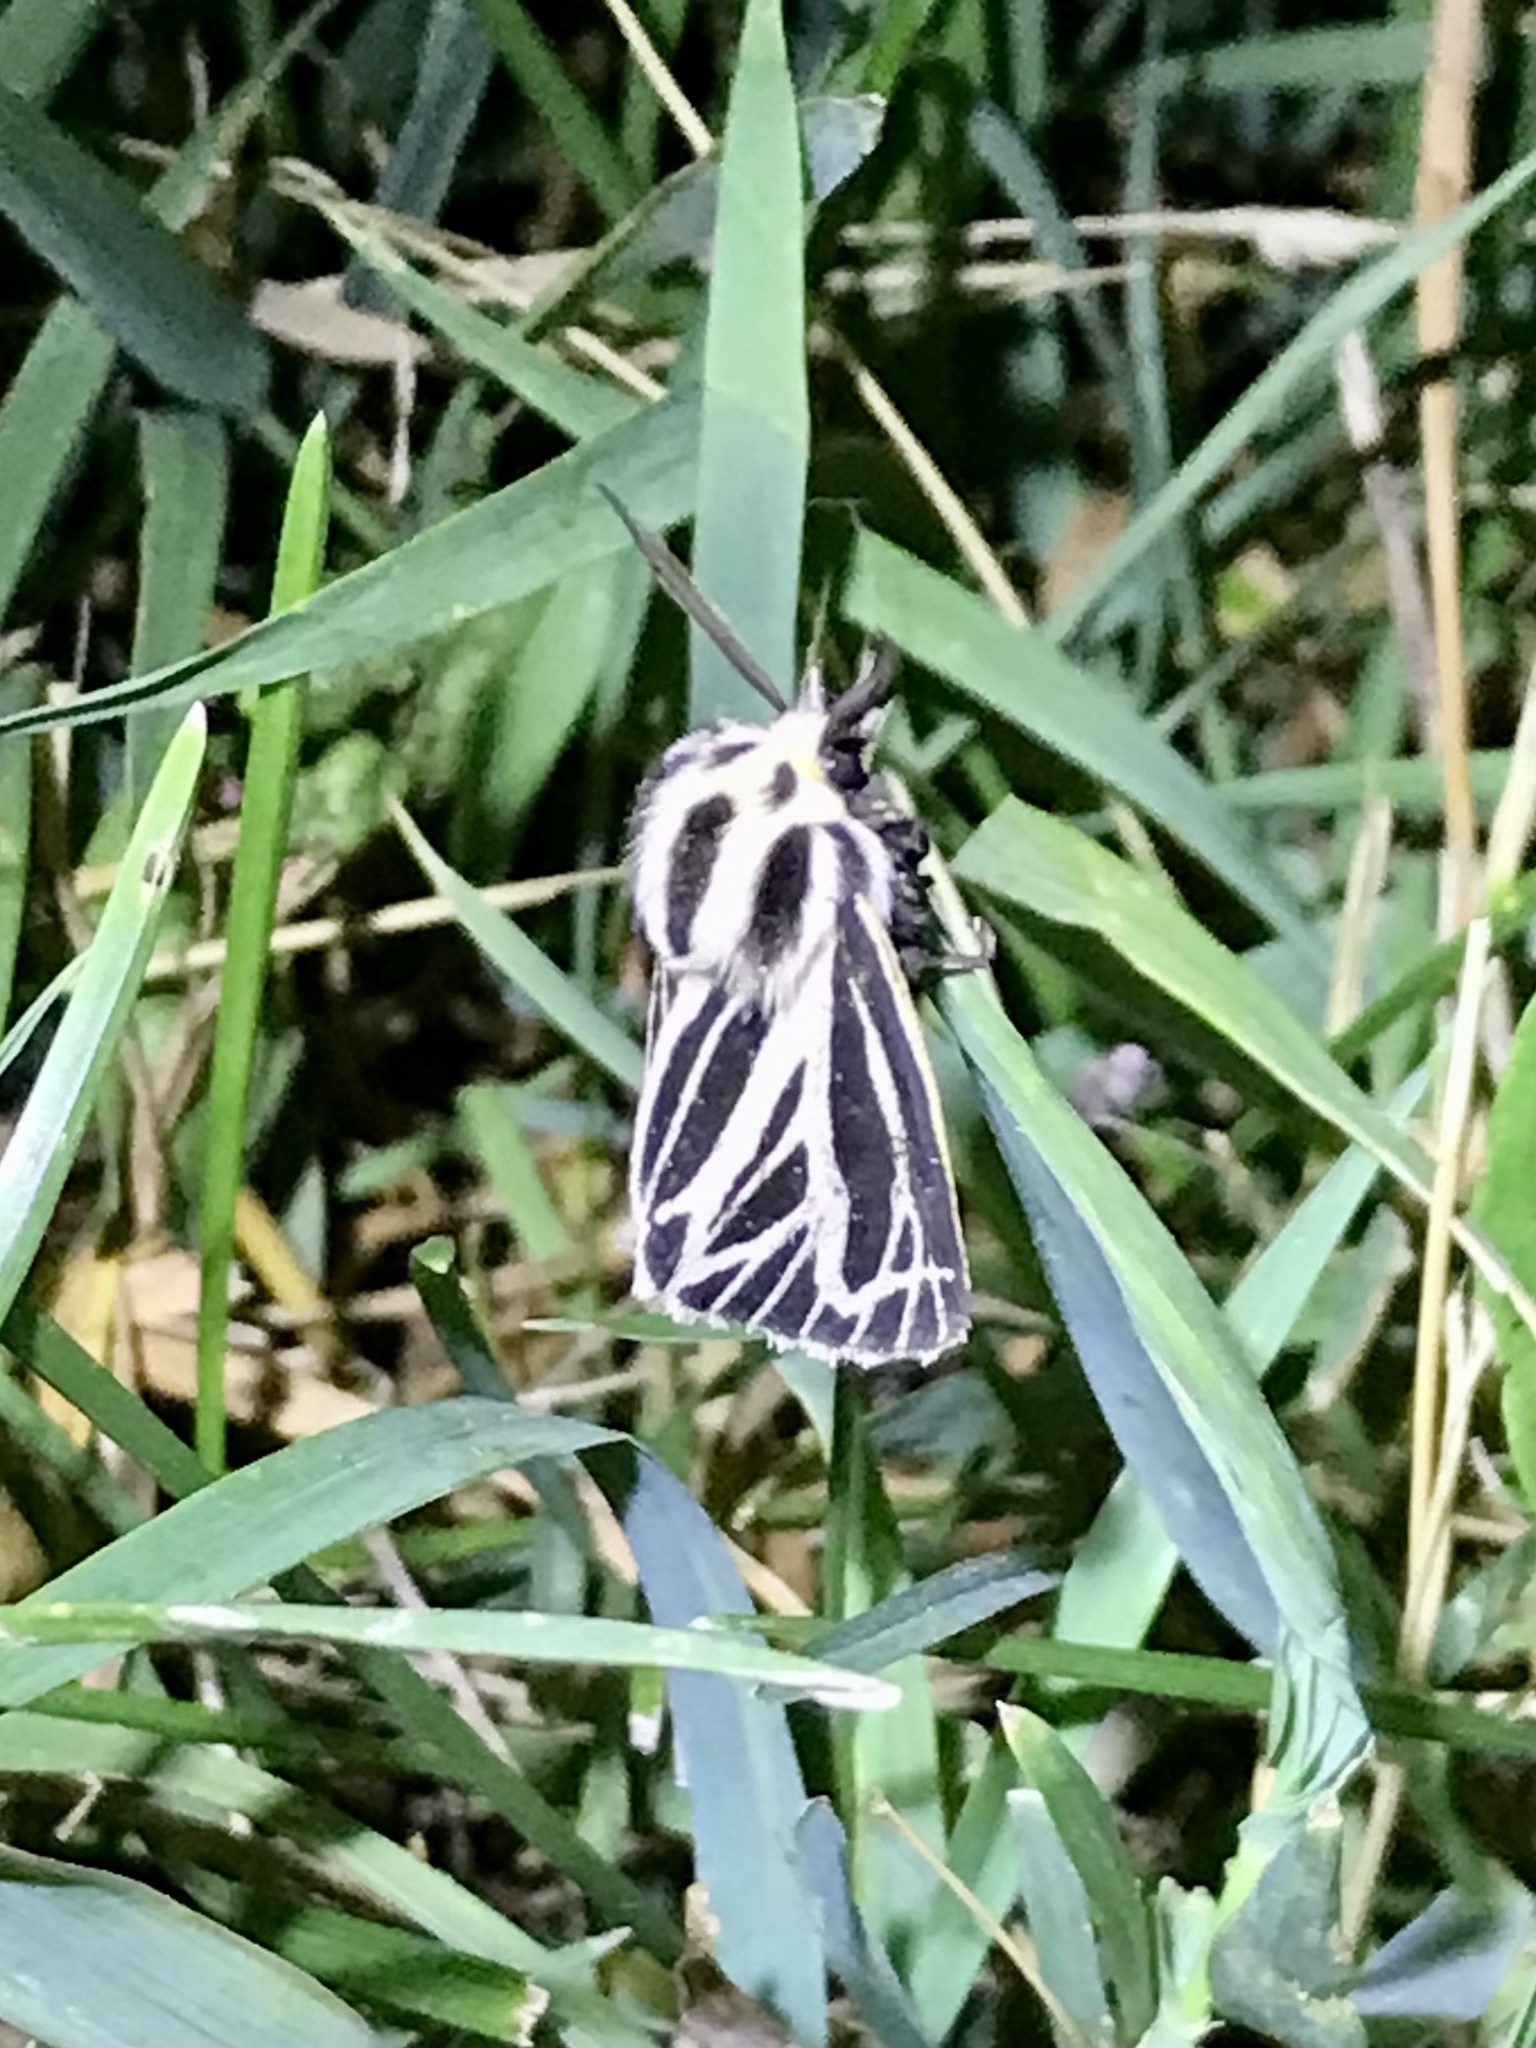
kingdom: Animalia
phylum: Arthropoda
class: Insecta
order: Lepidoptera
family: Erebidae
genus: Grammia
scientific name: Grammia virguncula
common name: Little tiger moth
